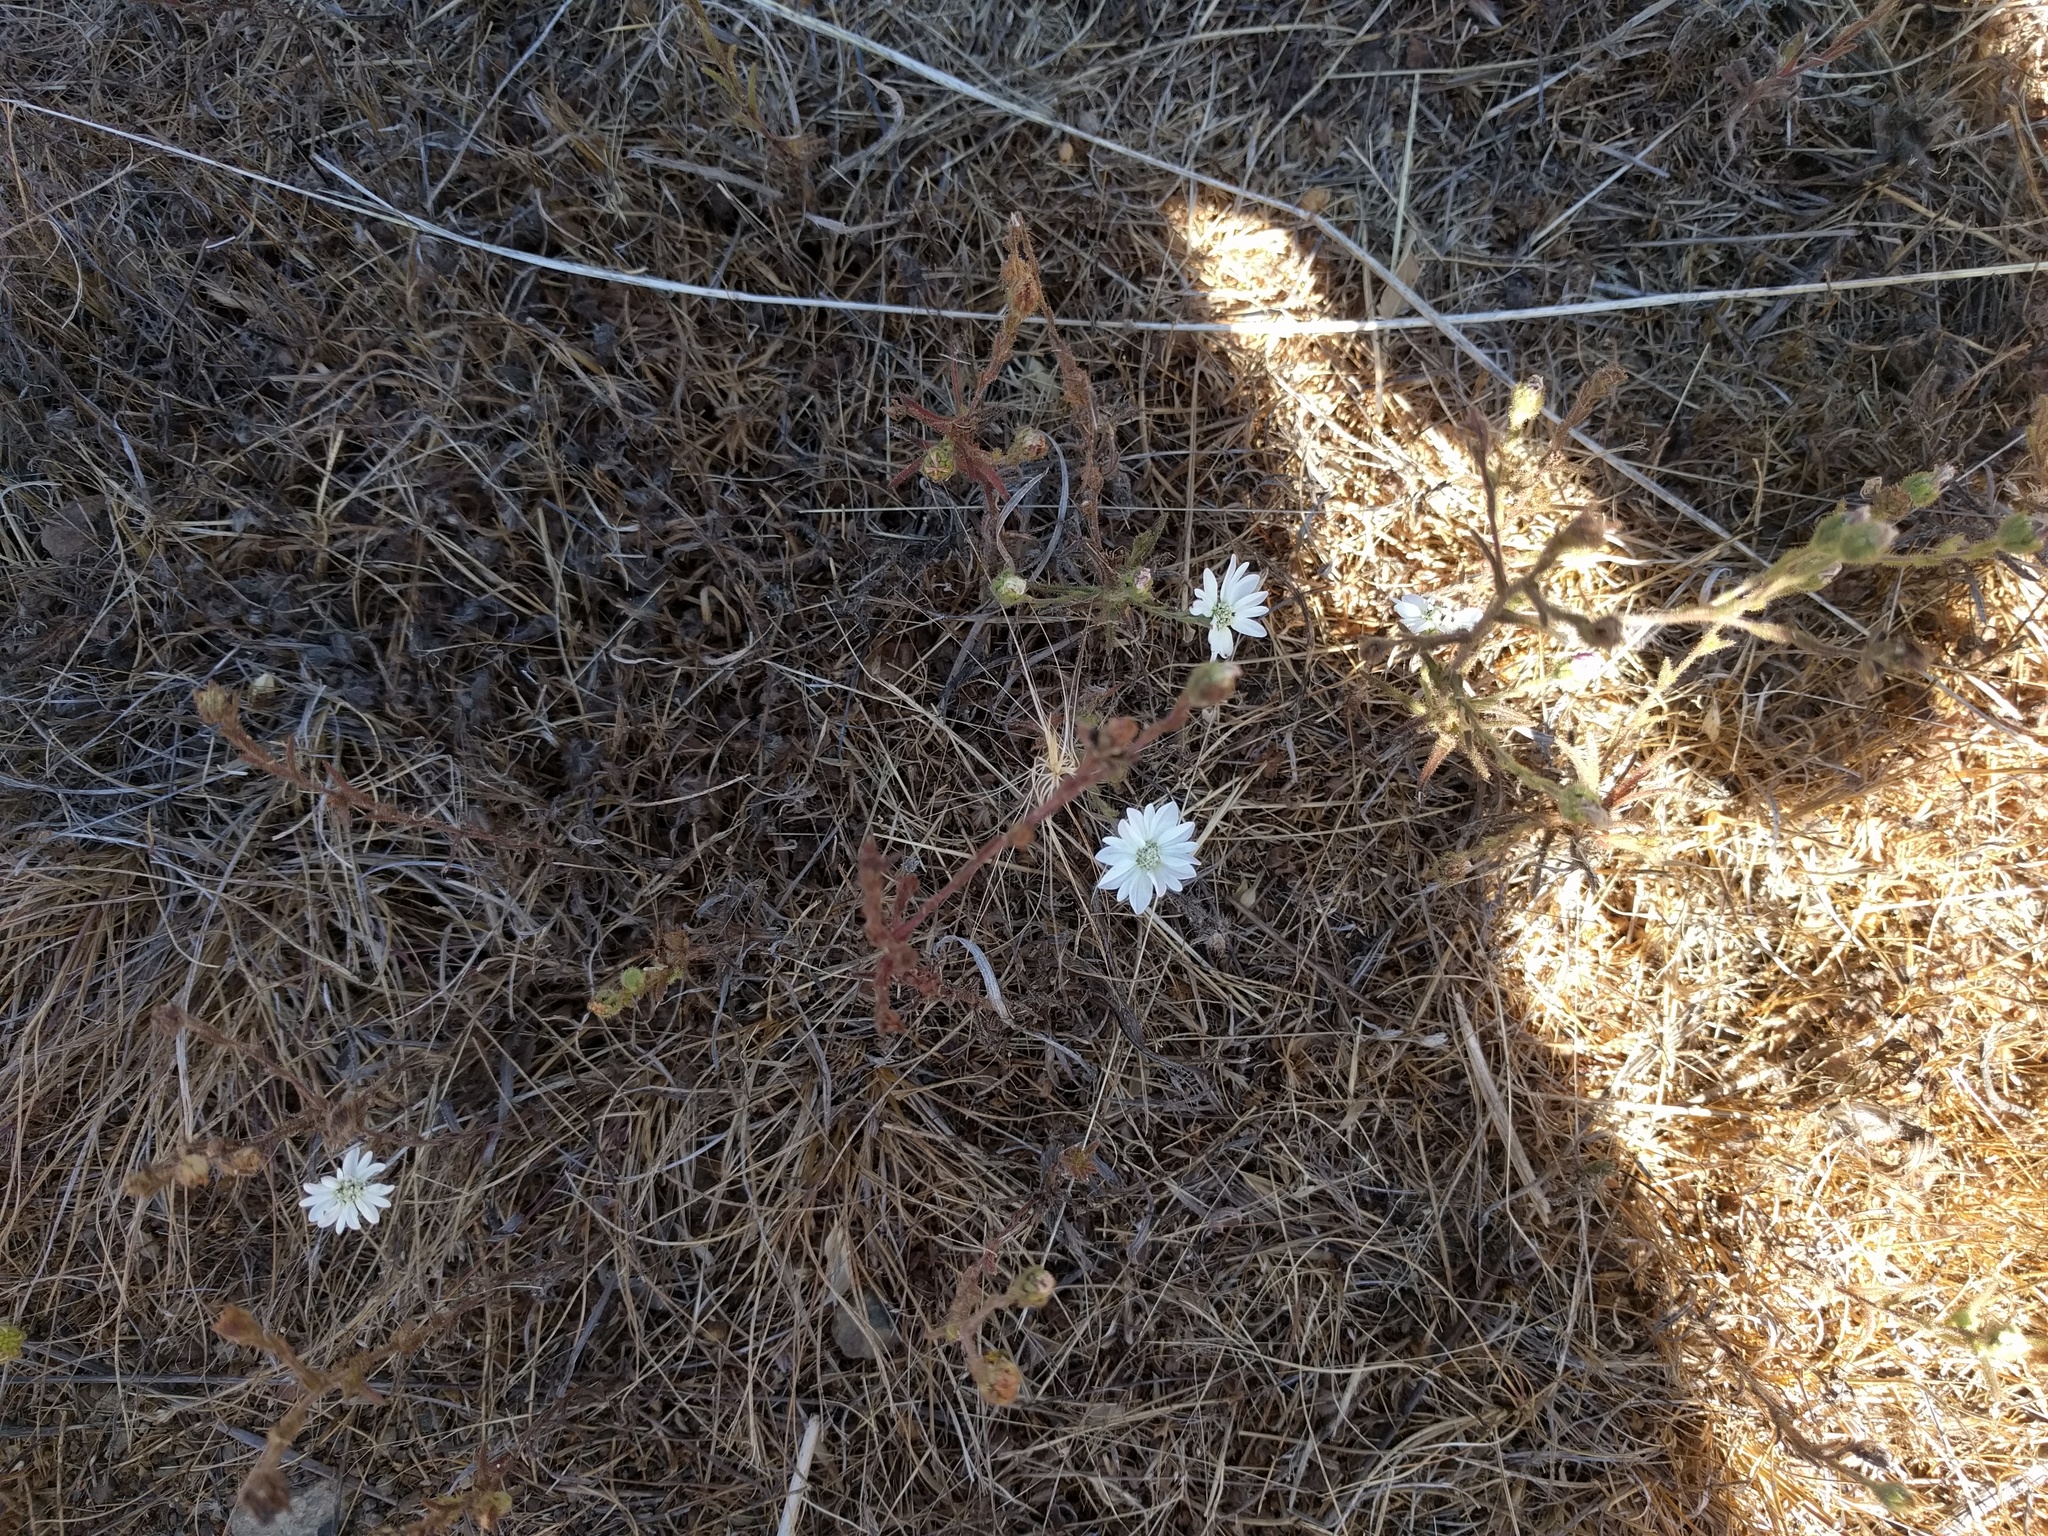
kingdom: Plantae
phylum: Tracheophyta
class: Magnoliopsida
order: Asterales
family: Asteraceae
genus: Hemizonia
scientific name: Hemizonia congesta
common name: Hayfield tarweed
